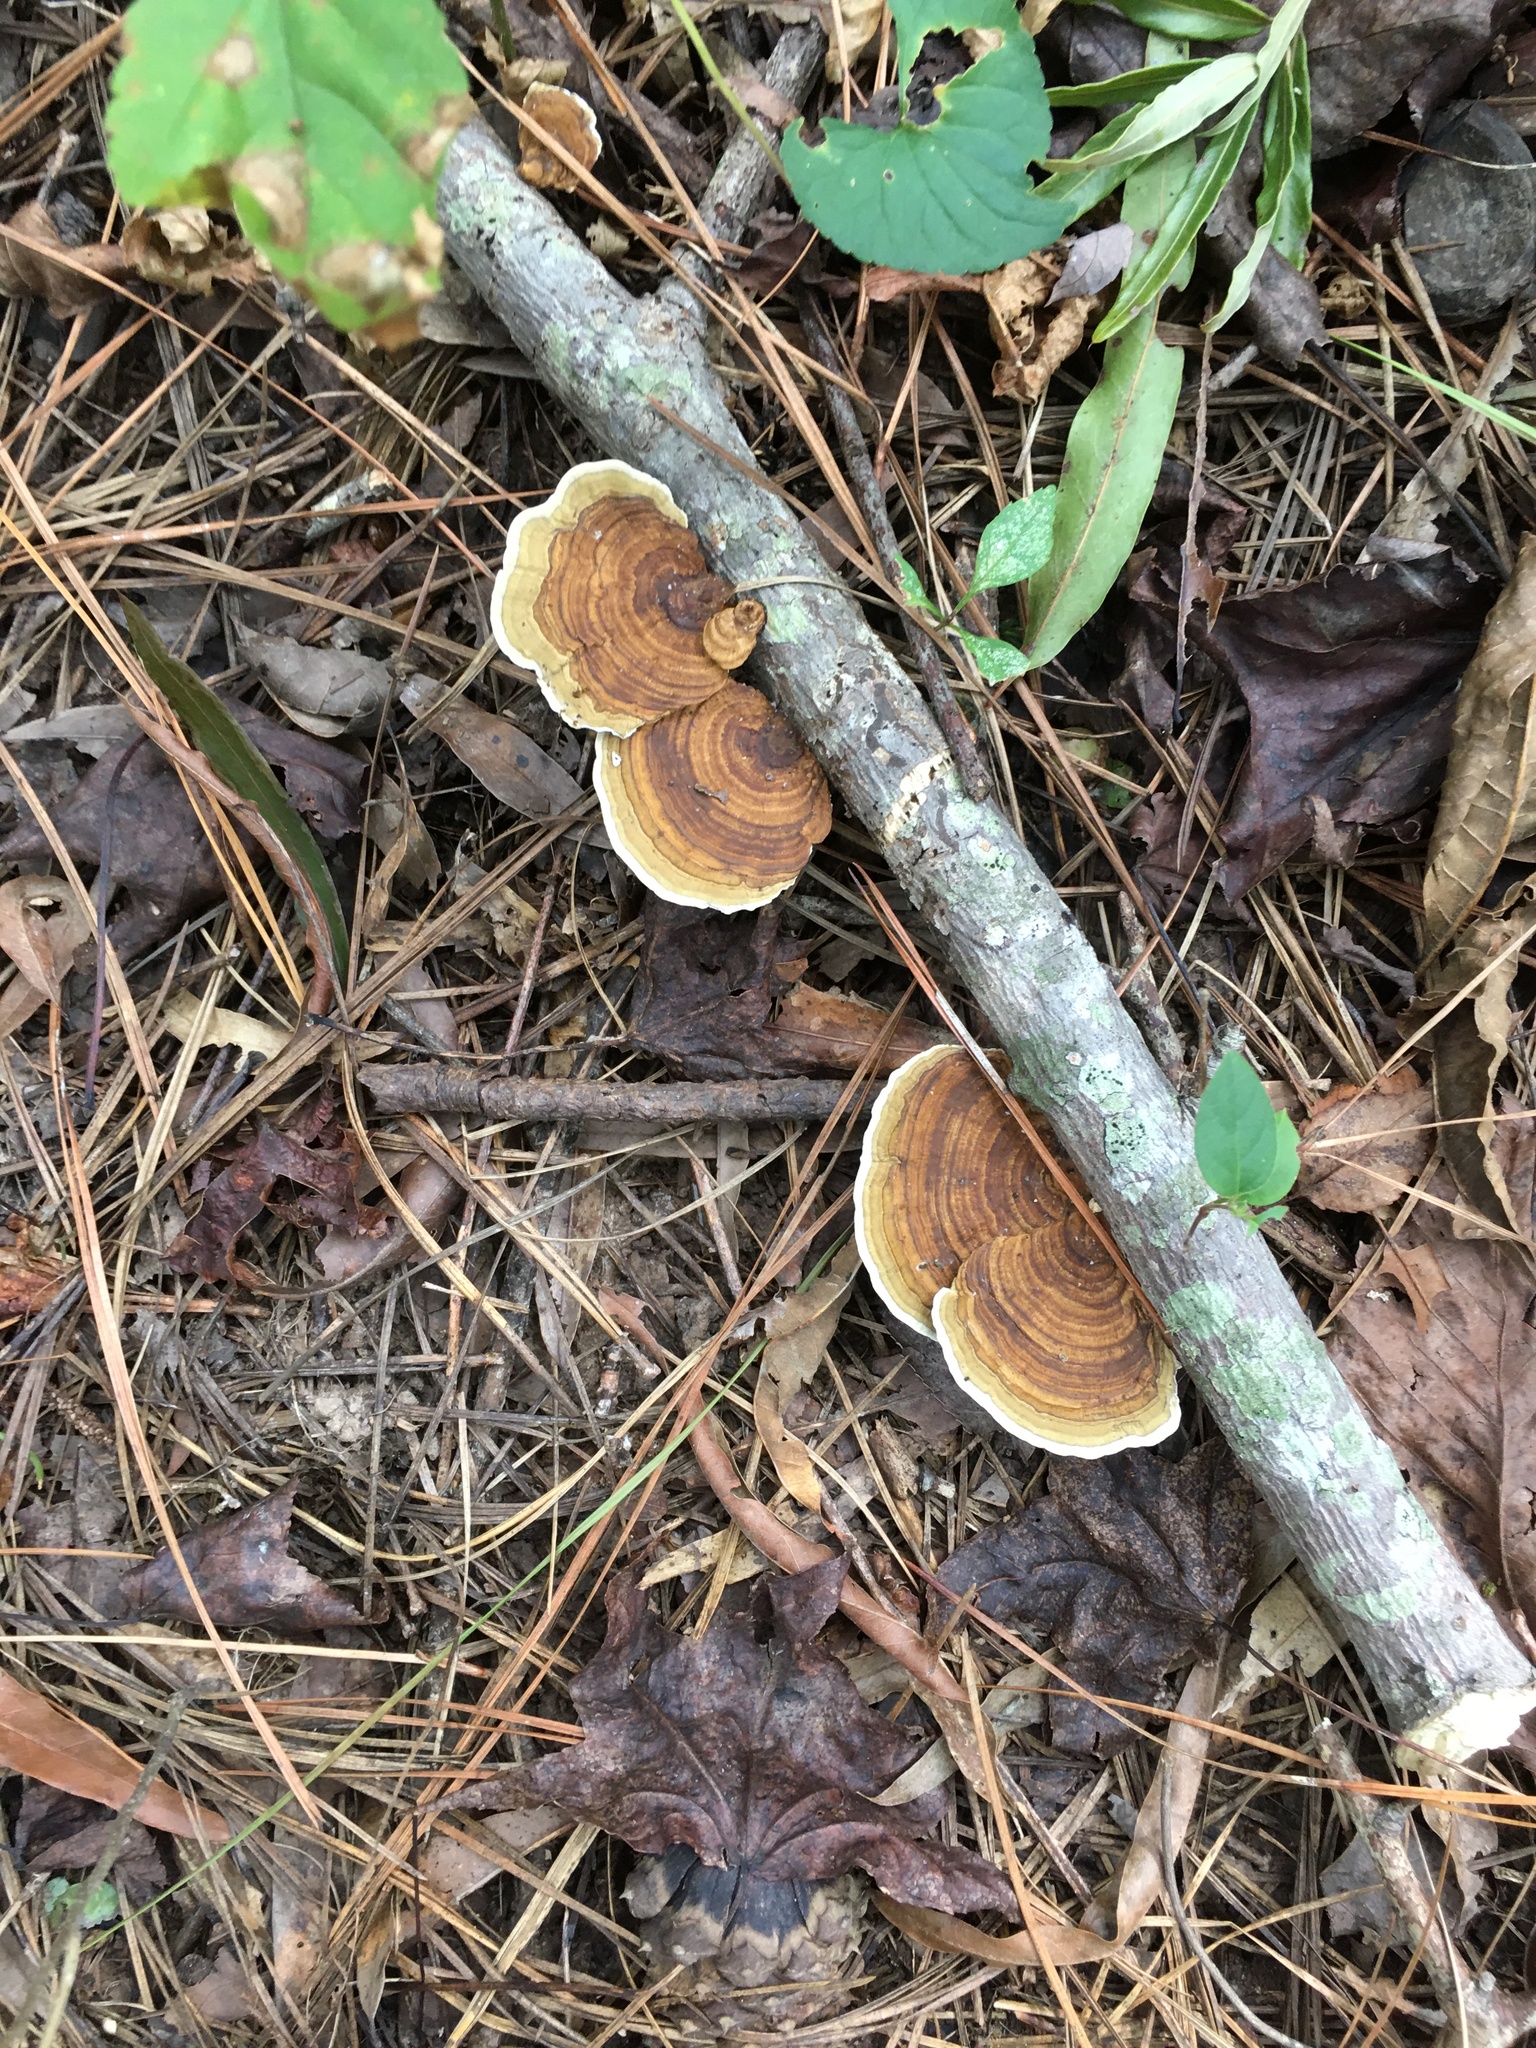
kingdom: Fungi
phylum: Basidiomycota
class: Agaricomycetes
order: Polyporales
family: Polyporaceae
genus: Daedaleopsis
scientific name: Daedaleopsis confragosa
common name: Blushing bracket
